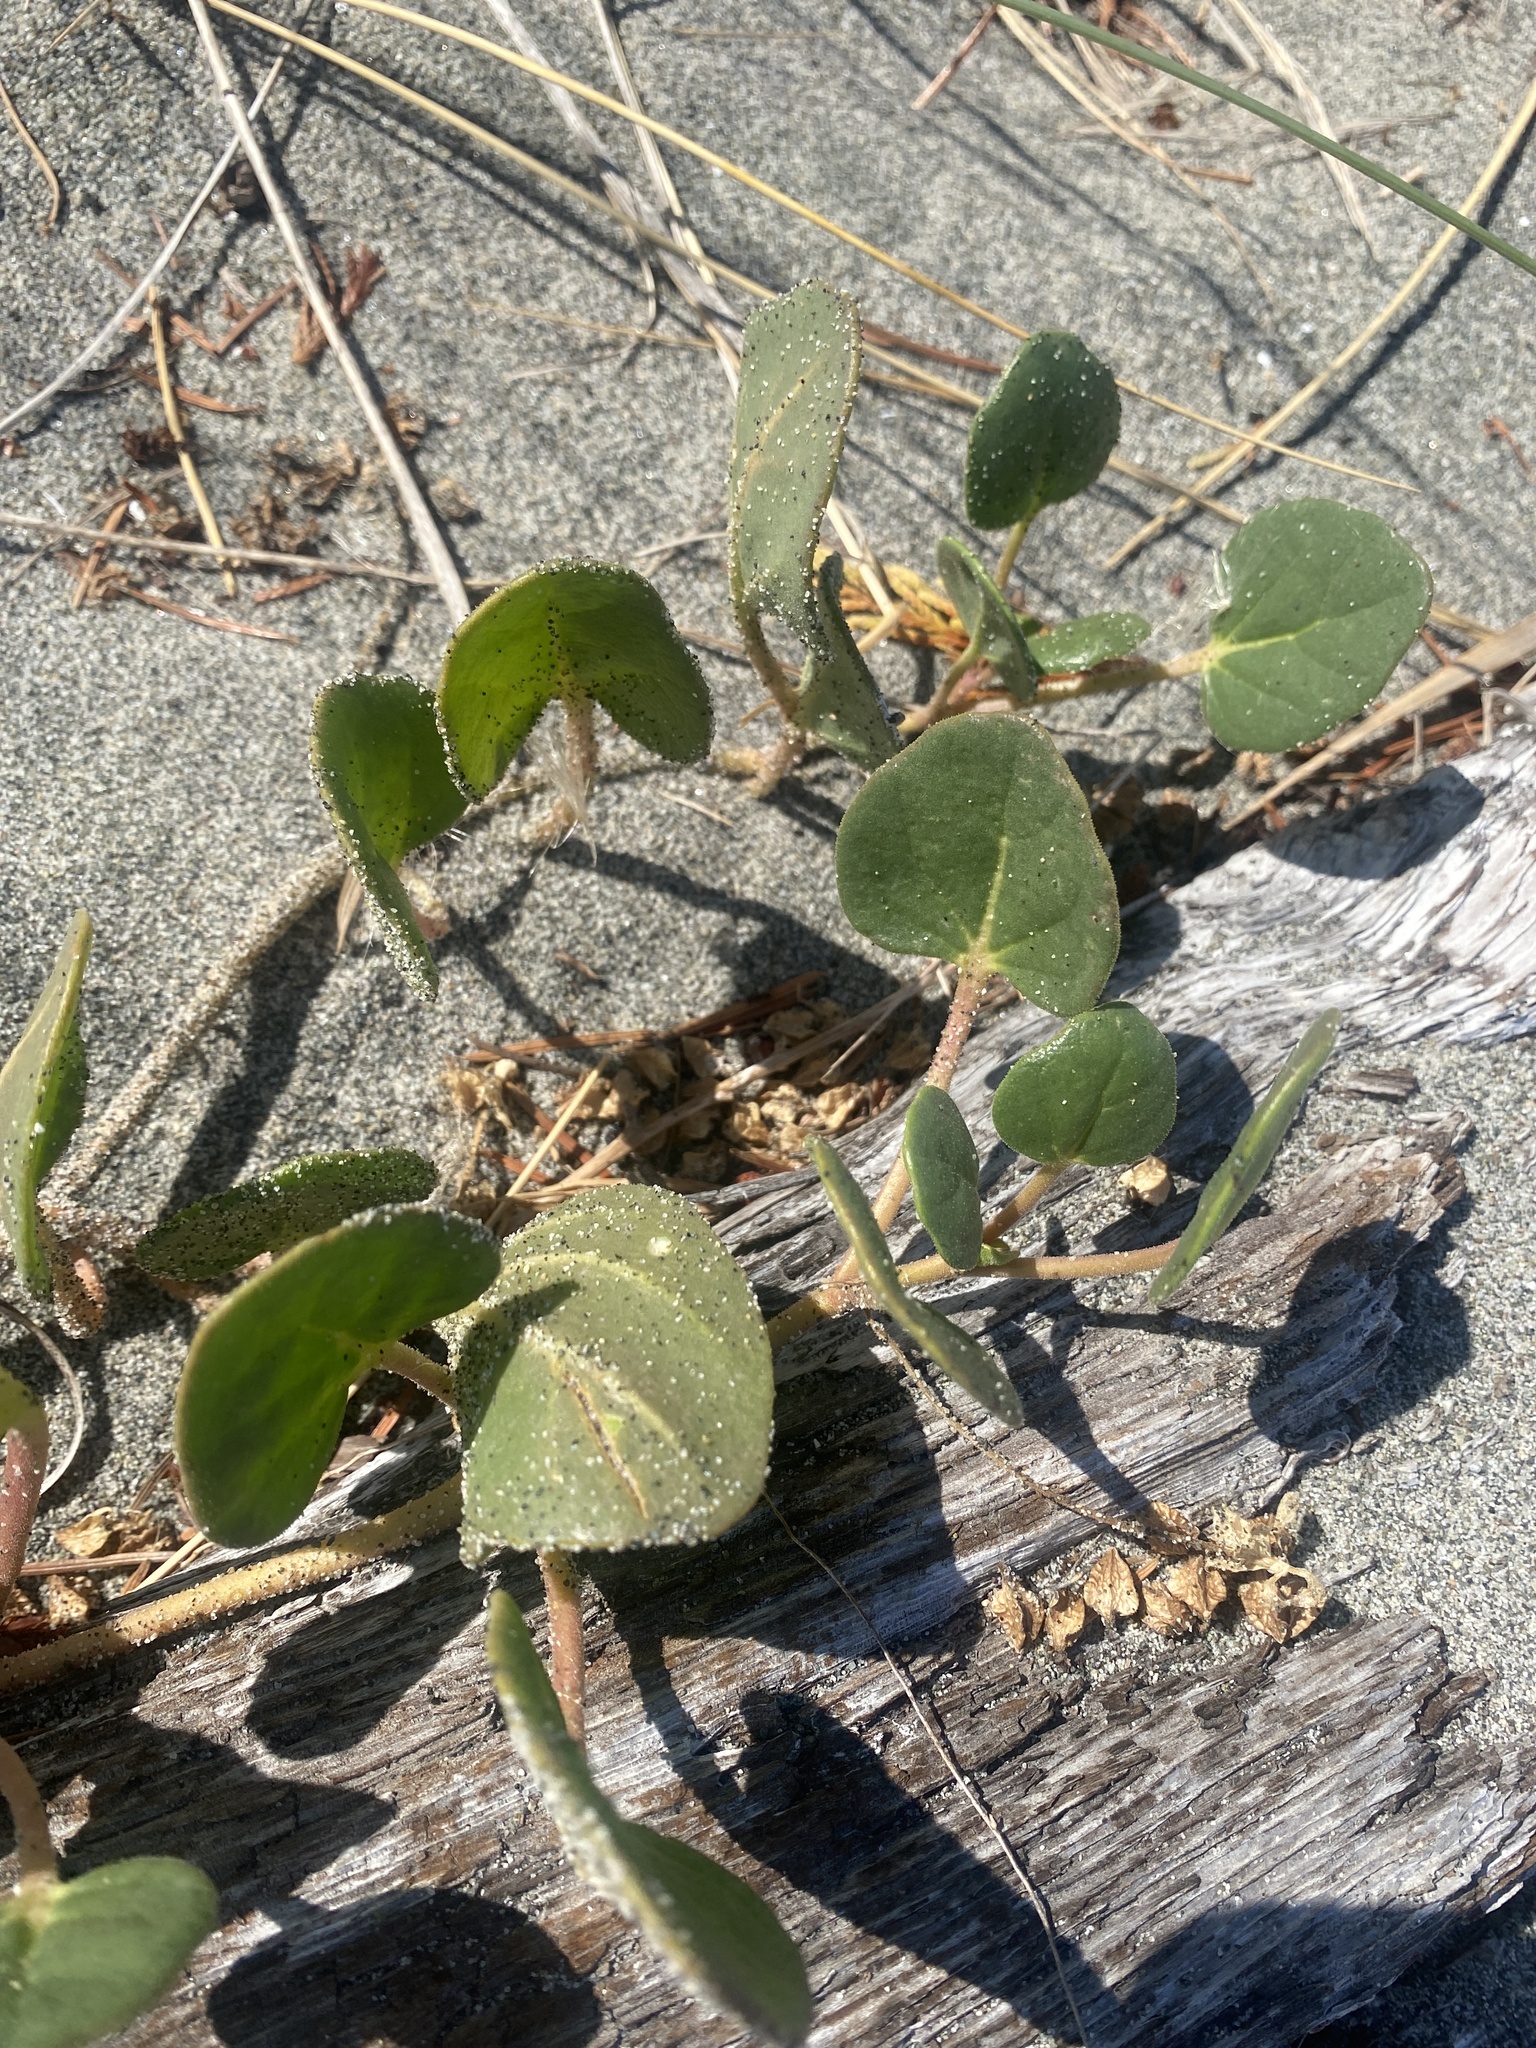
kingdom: Plantae
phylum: Tracheophyta
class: Magnoliopsida
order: Caryophyllales
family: Nyctaginaceae
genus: Abronia
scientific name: Abronia latifolia
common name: Yellow sand-verbena
